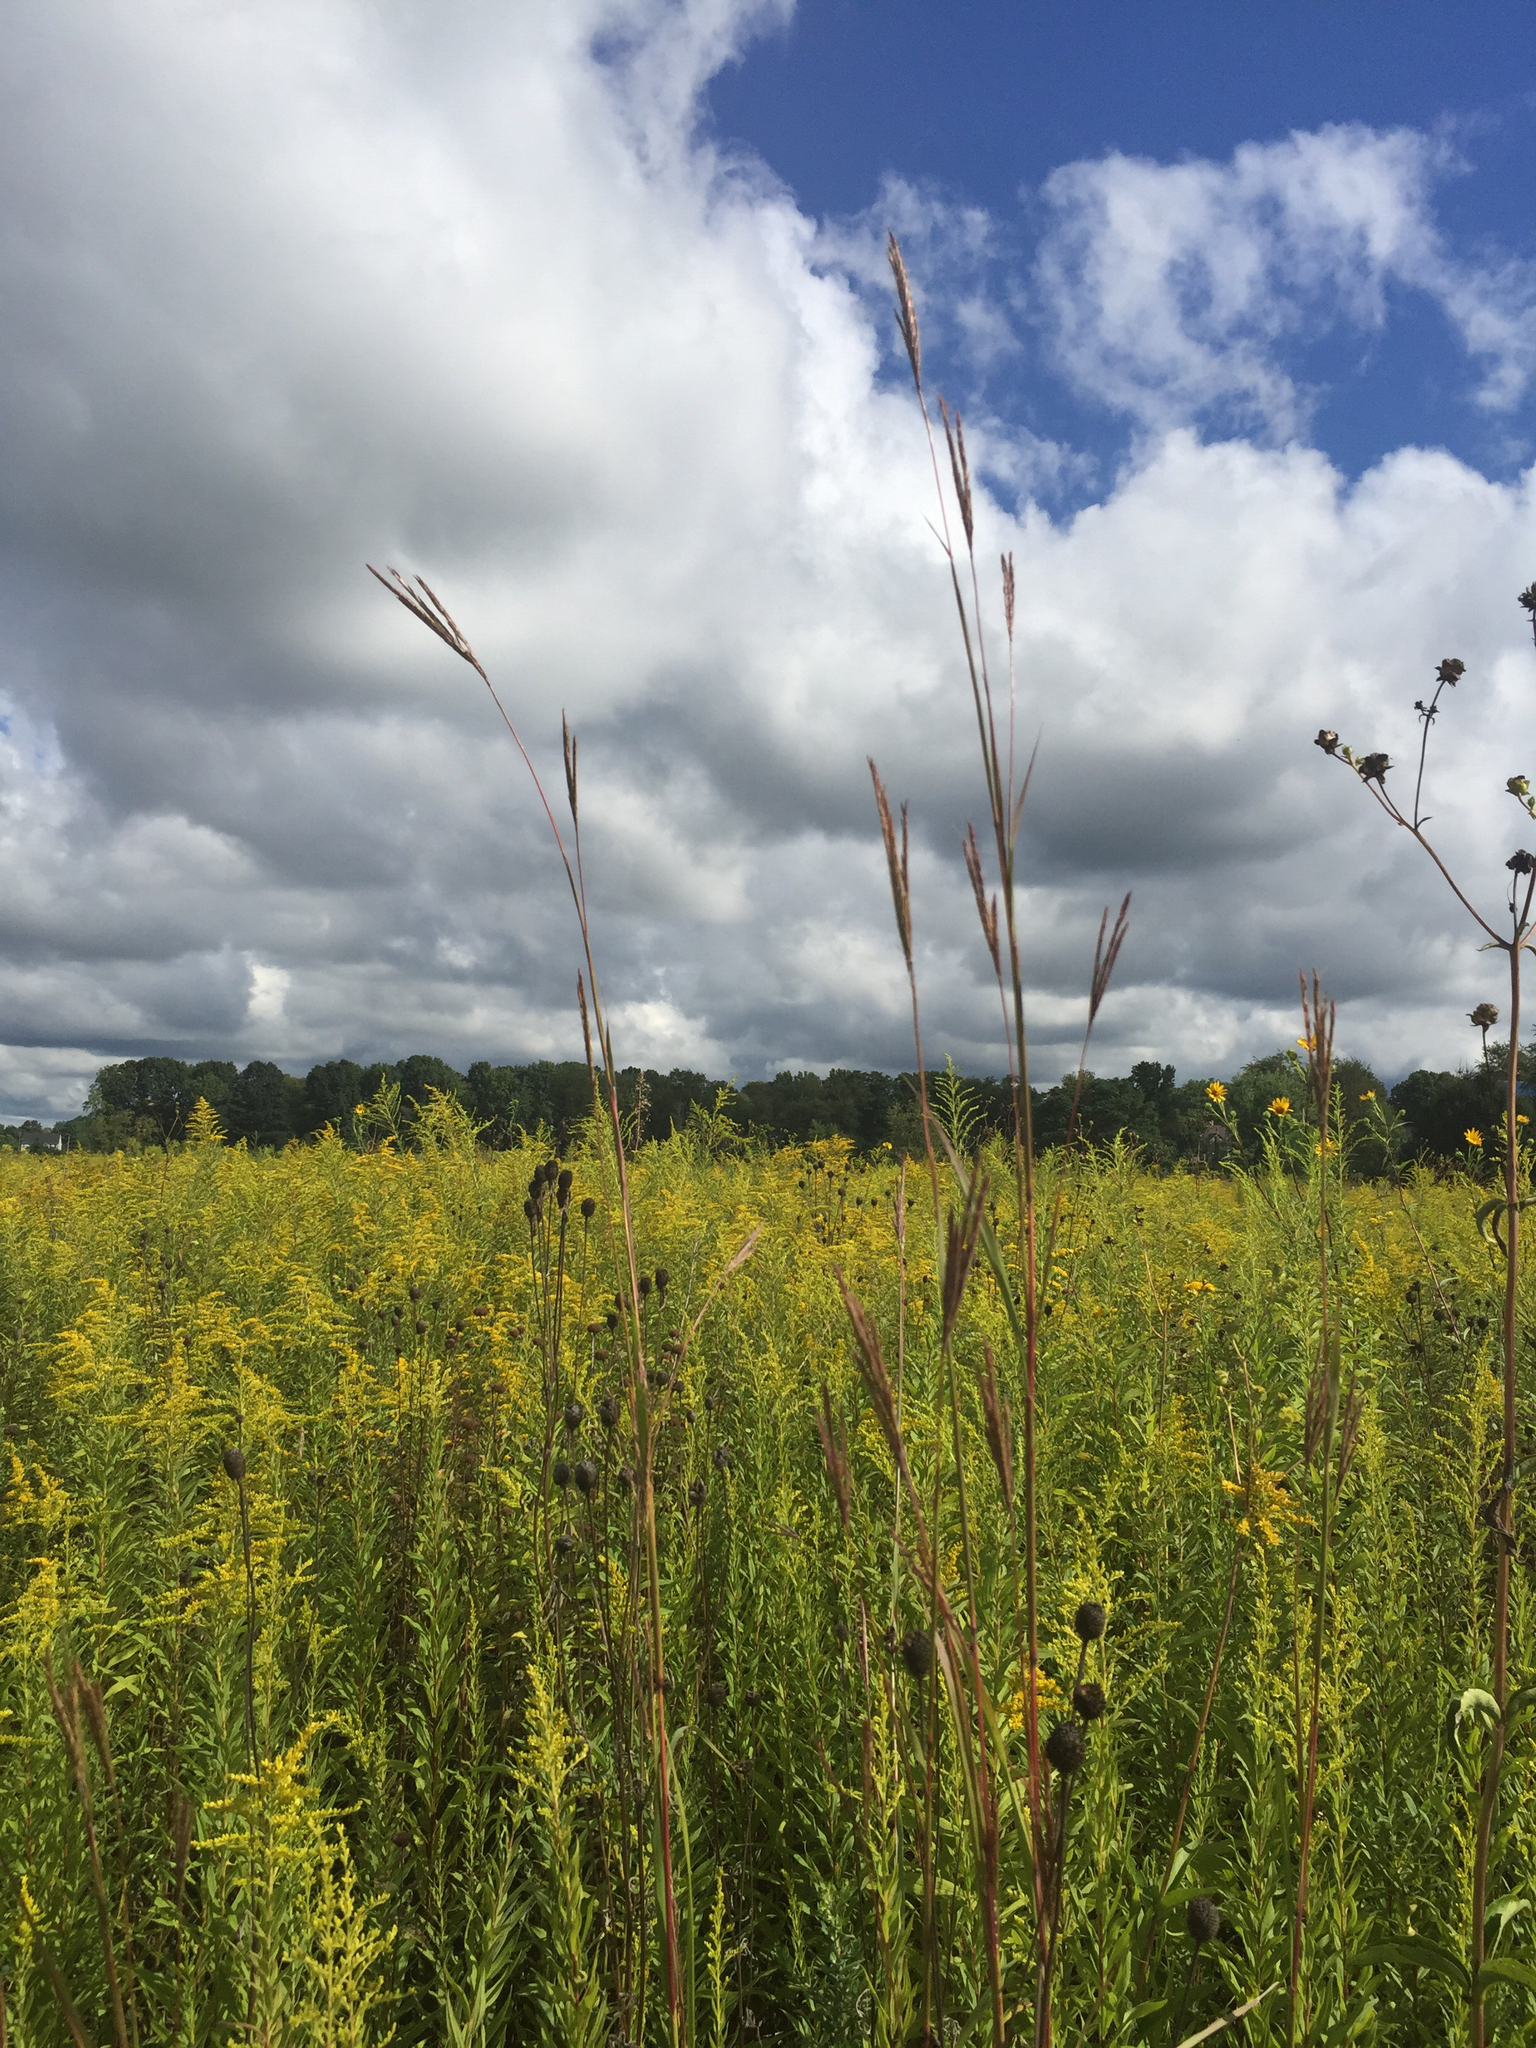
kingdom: Plantae
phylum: Tracheophyta
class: Liliopsida
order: Poales
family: Poaceae
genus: Andropogon
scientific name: Andropogon gerardi
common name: Big bluestem
